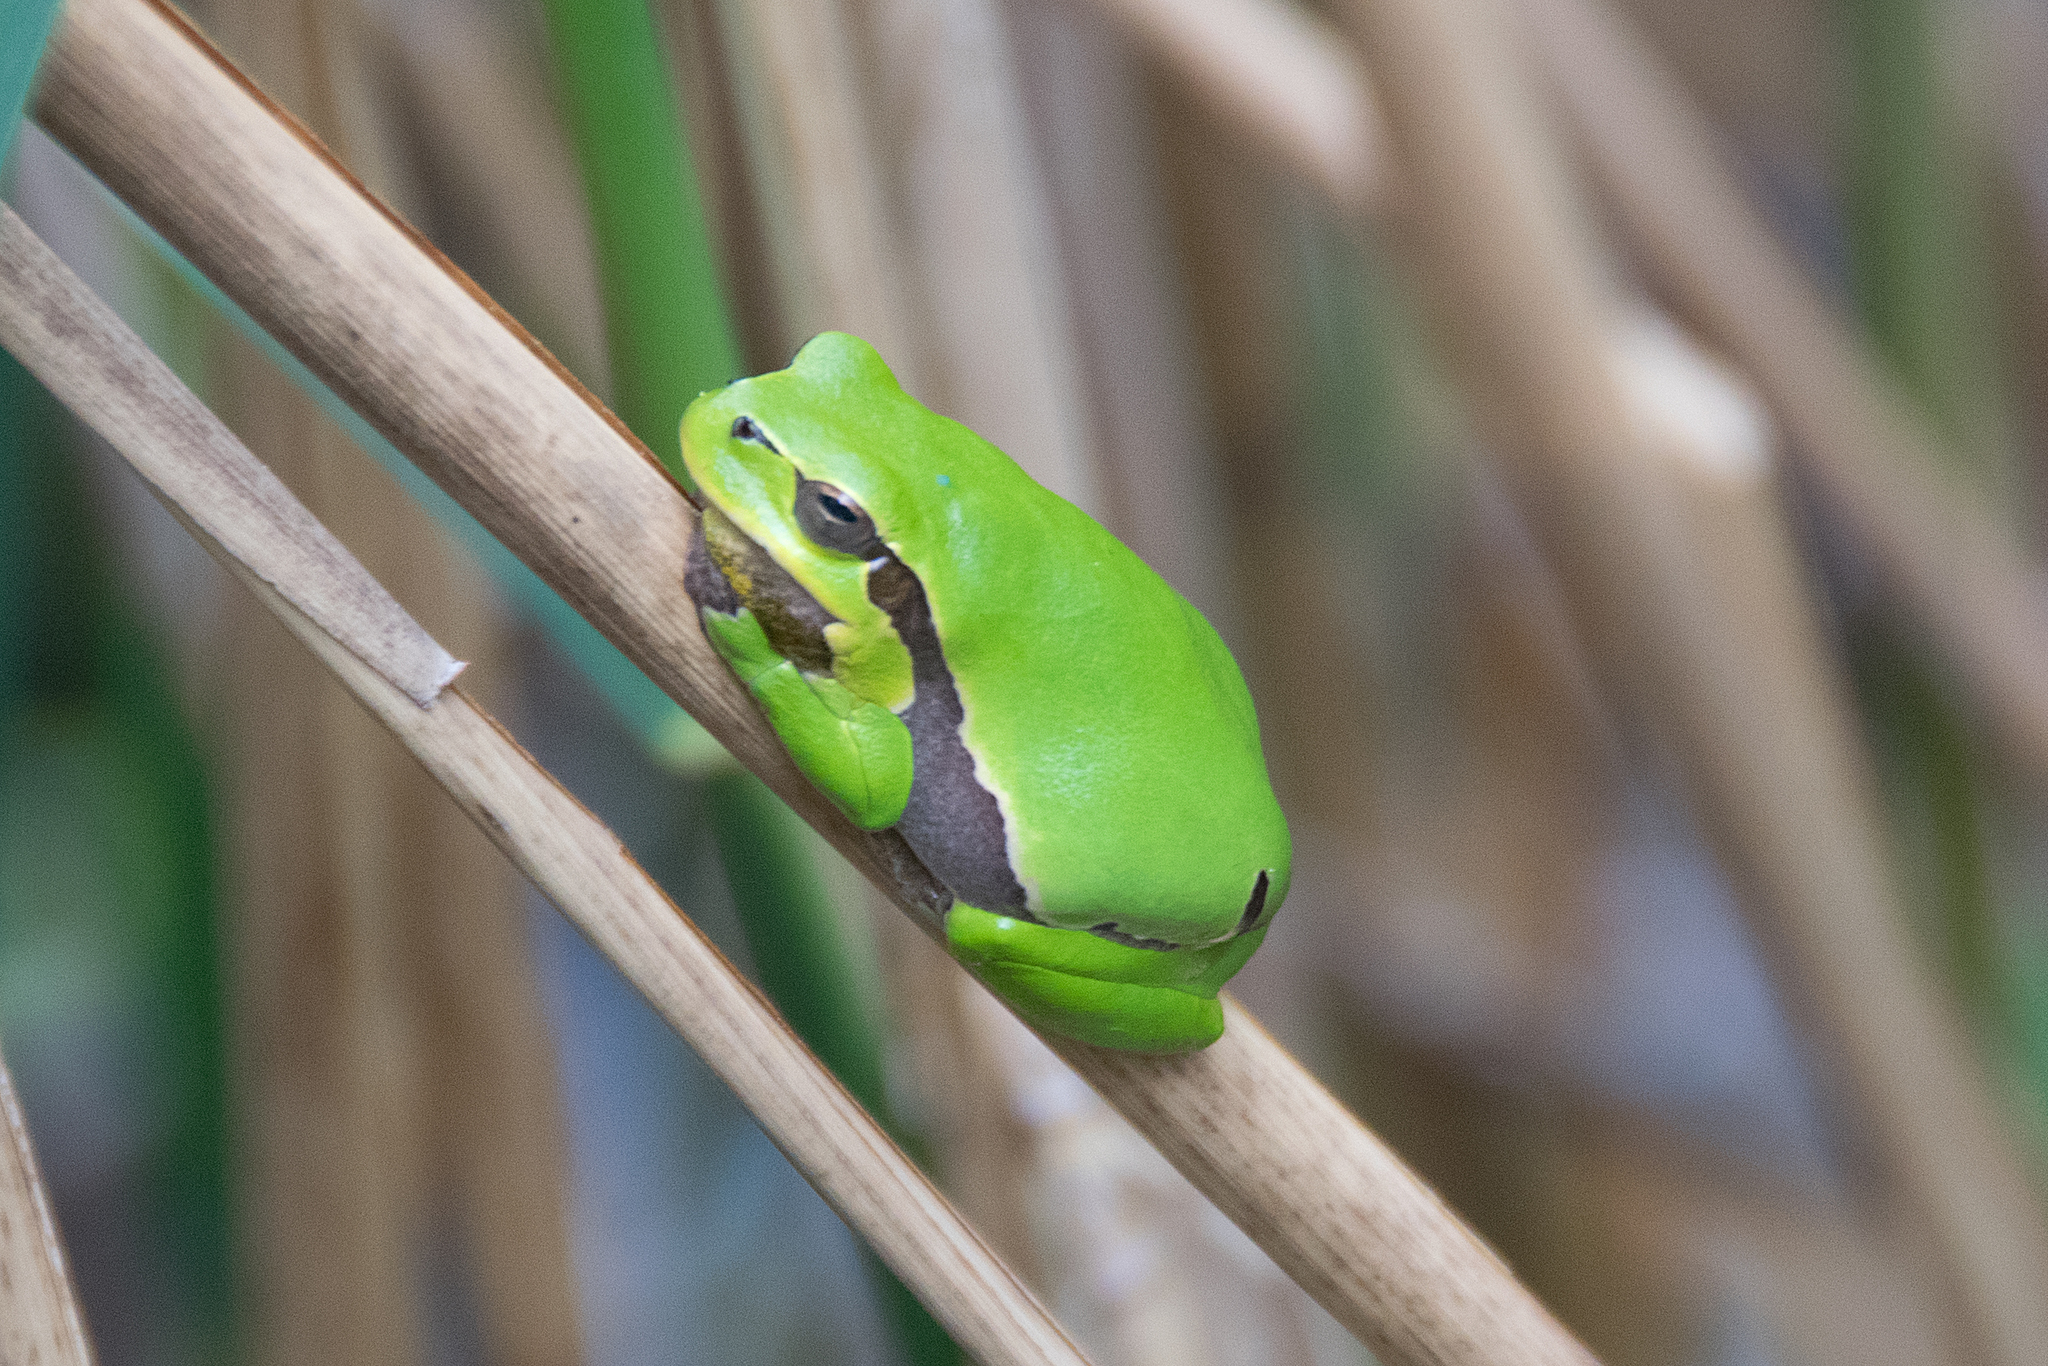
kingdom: Animalia
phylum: Chordata
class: Amphibia
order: Anura
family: Hylidae
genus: Hyla
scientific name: Hyla arborea
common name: Common tree frog
